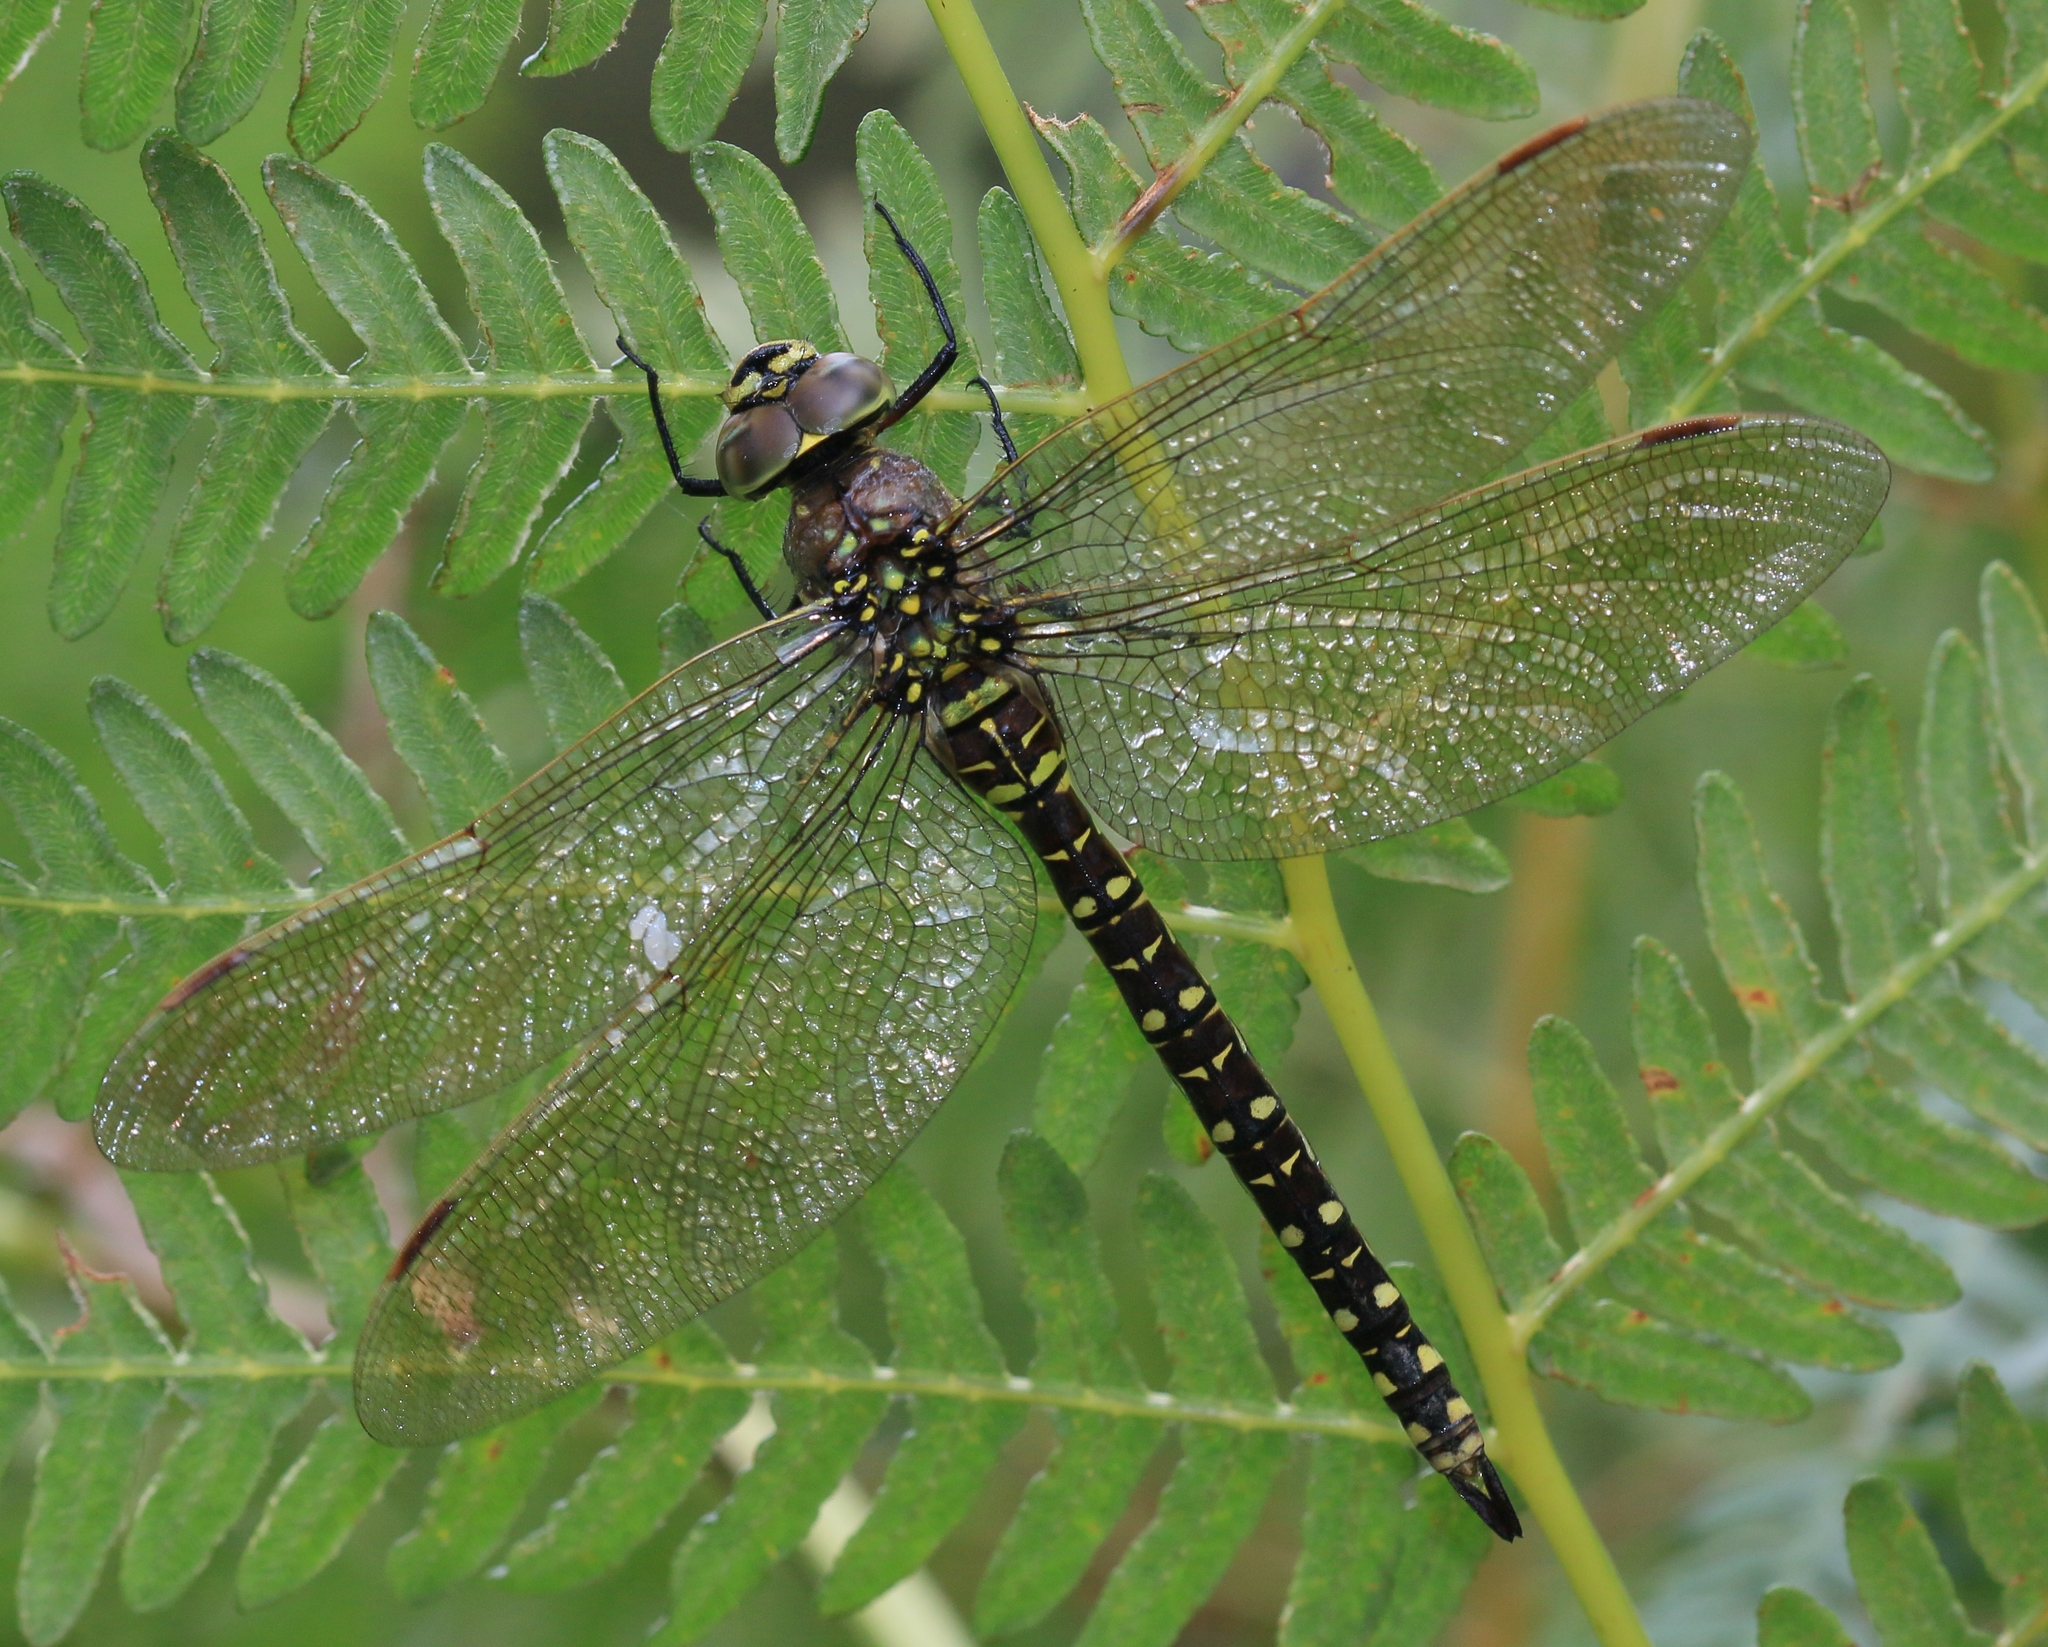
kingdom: Animalia
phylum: Arthropoda
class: Insecta
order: Odonata
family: Aeshnidae
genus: Aeshna
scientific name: Aeshna juncea
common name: Moorland hawker
